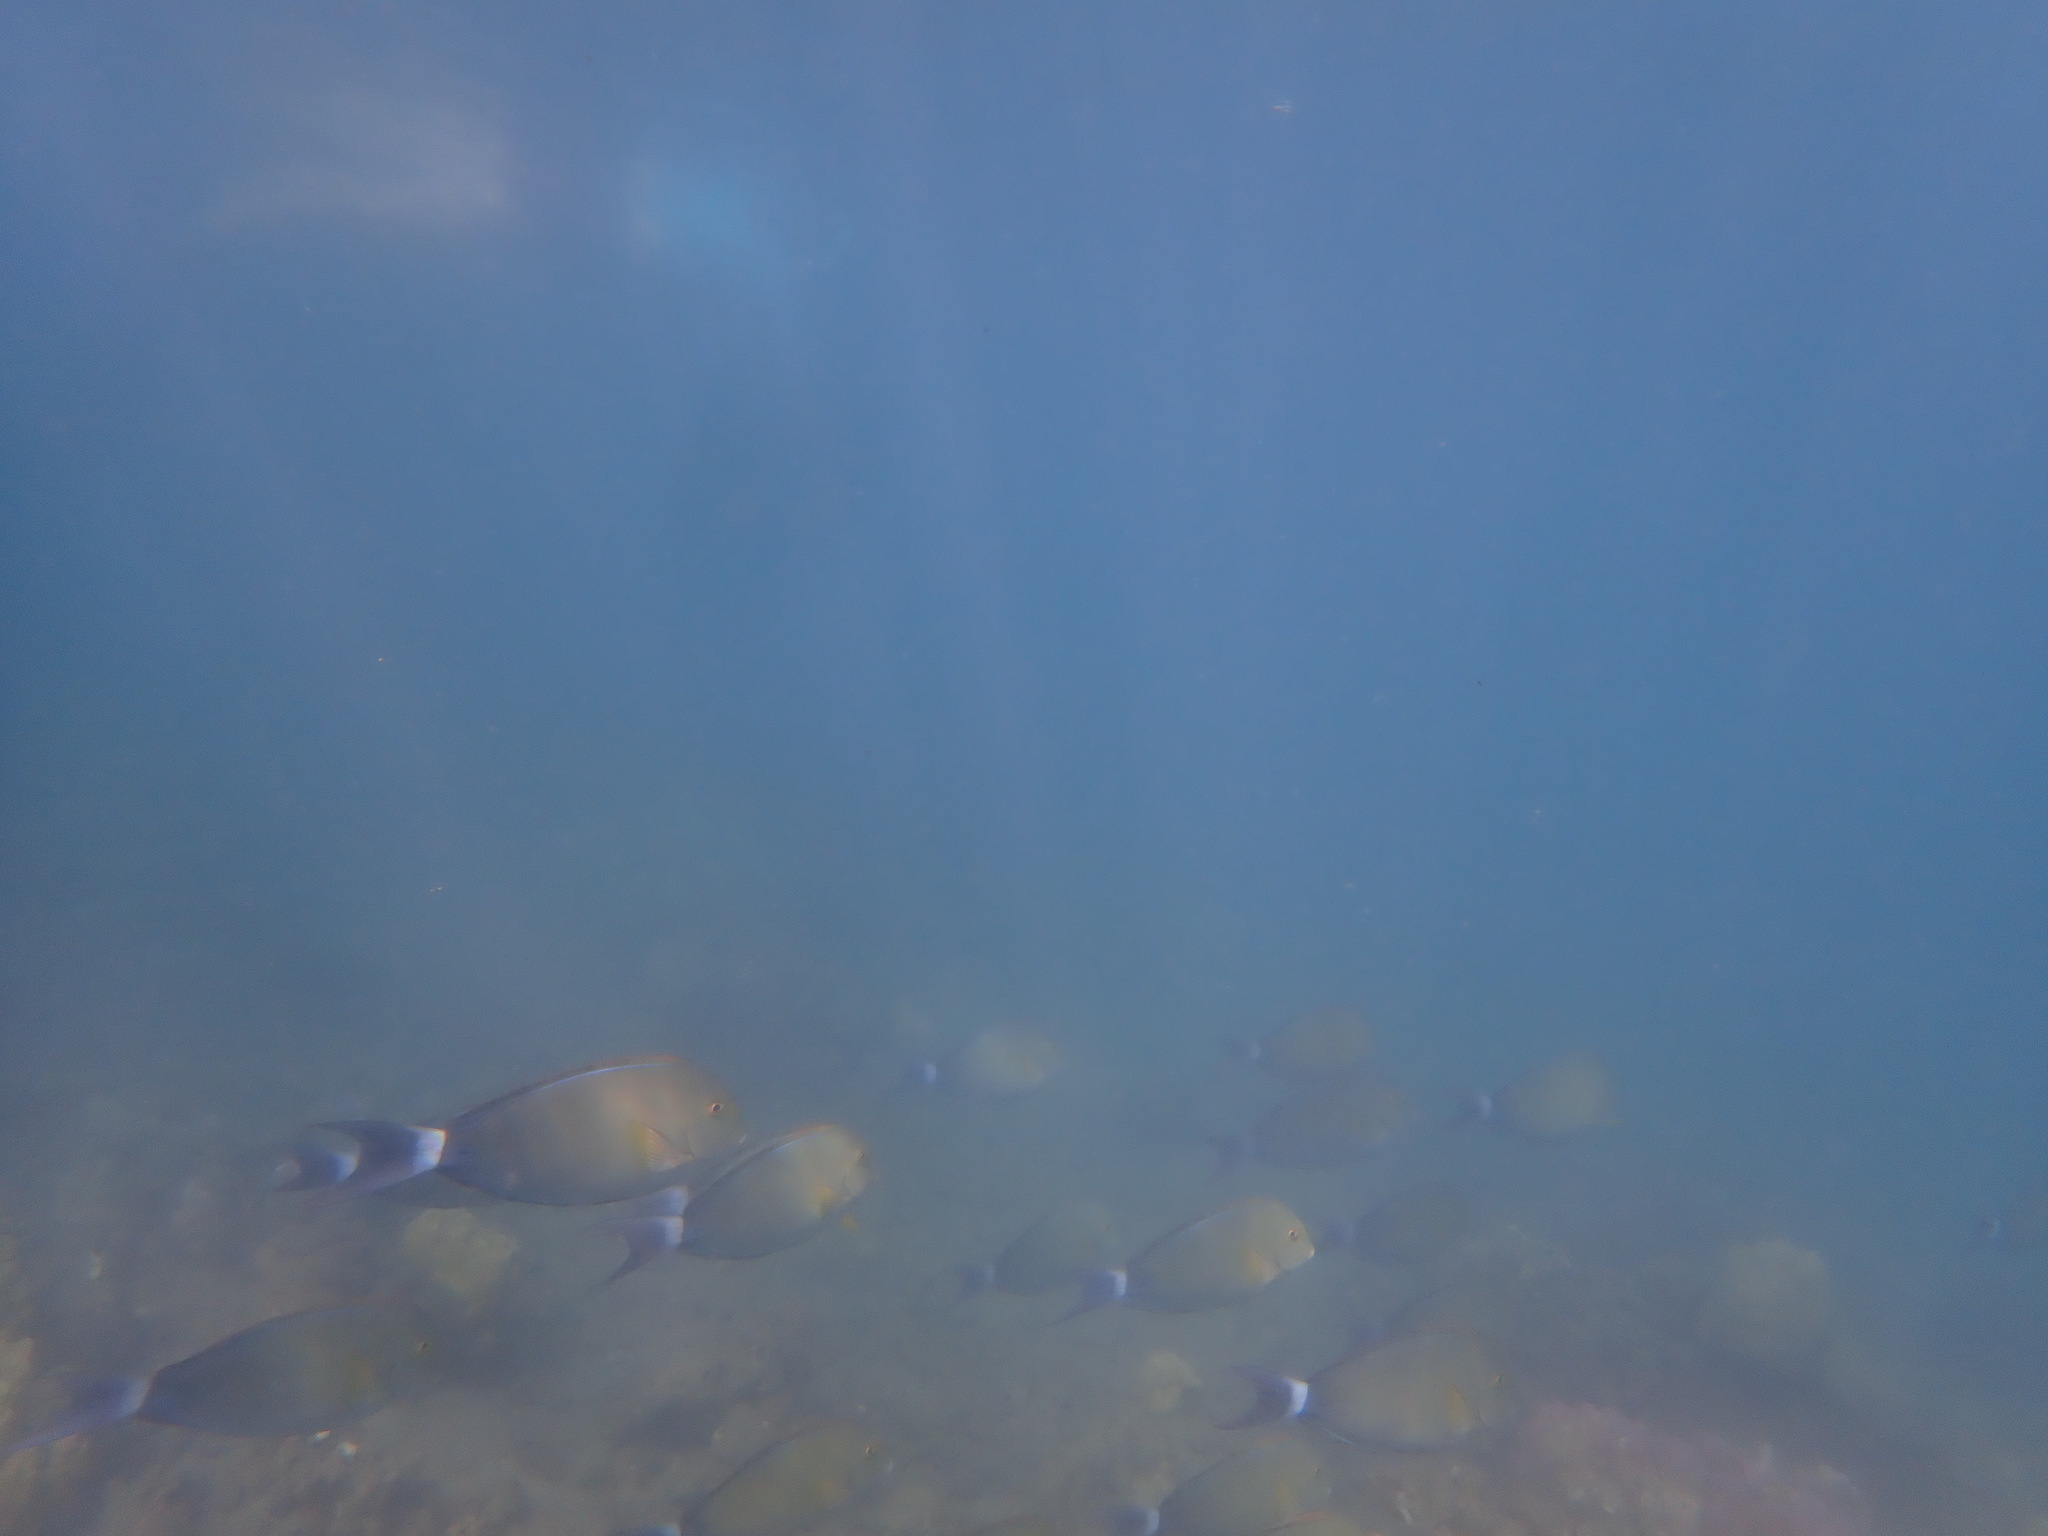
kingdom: Animalia
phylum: Chordata
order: Perciformes
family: Acanthuridae
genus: Acanthurus
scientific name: Acanthurus xanthopterus
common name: Cuvier's surgeonfish
